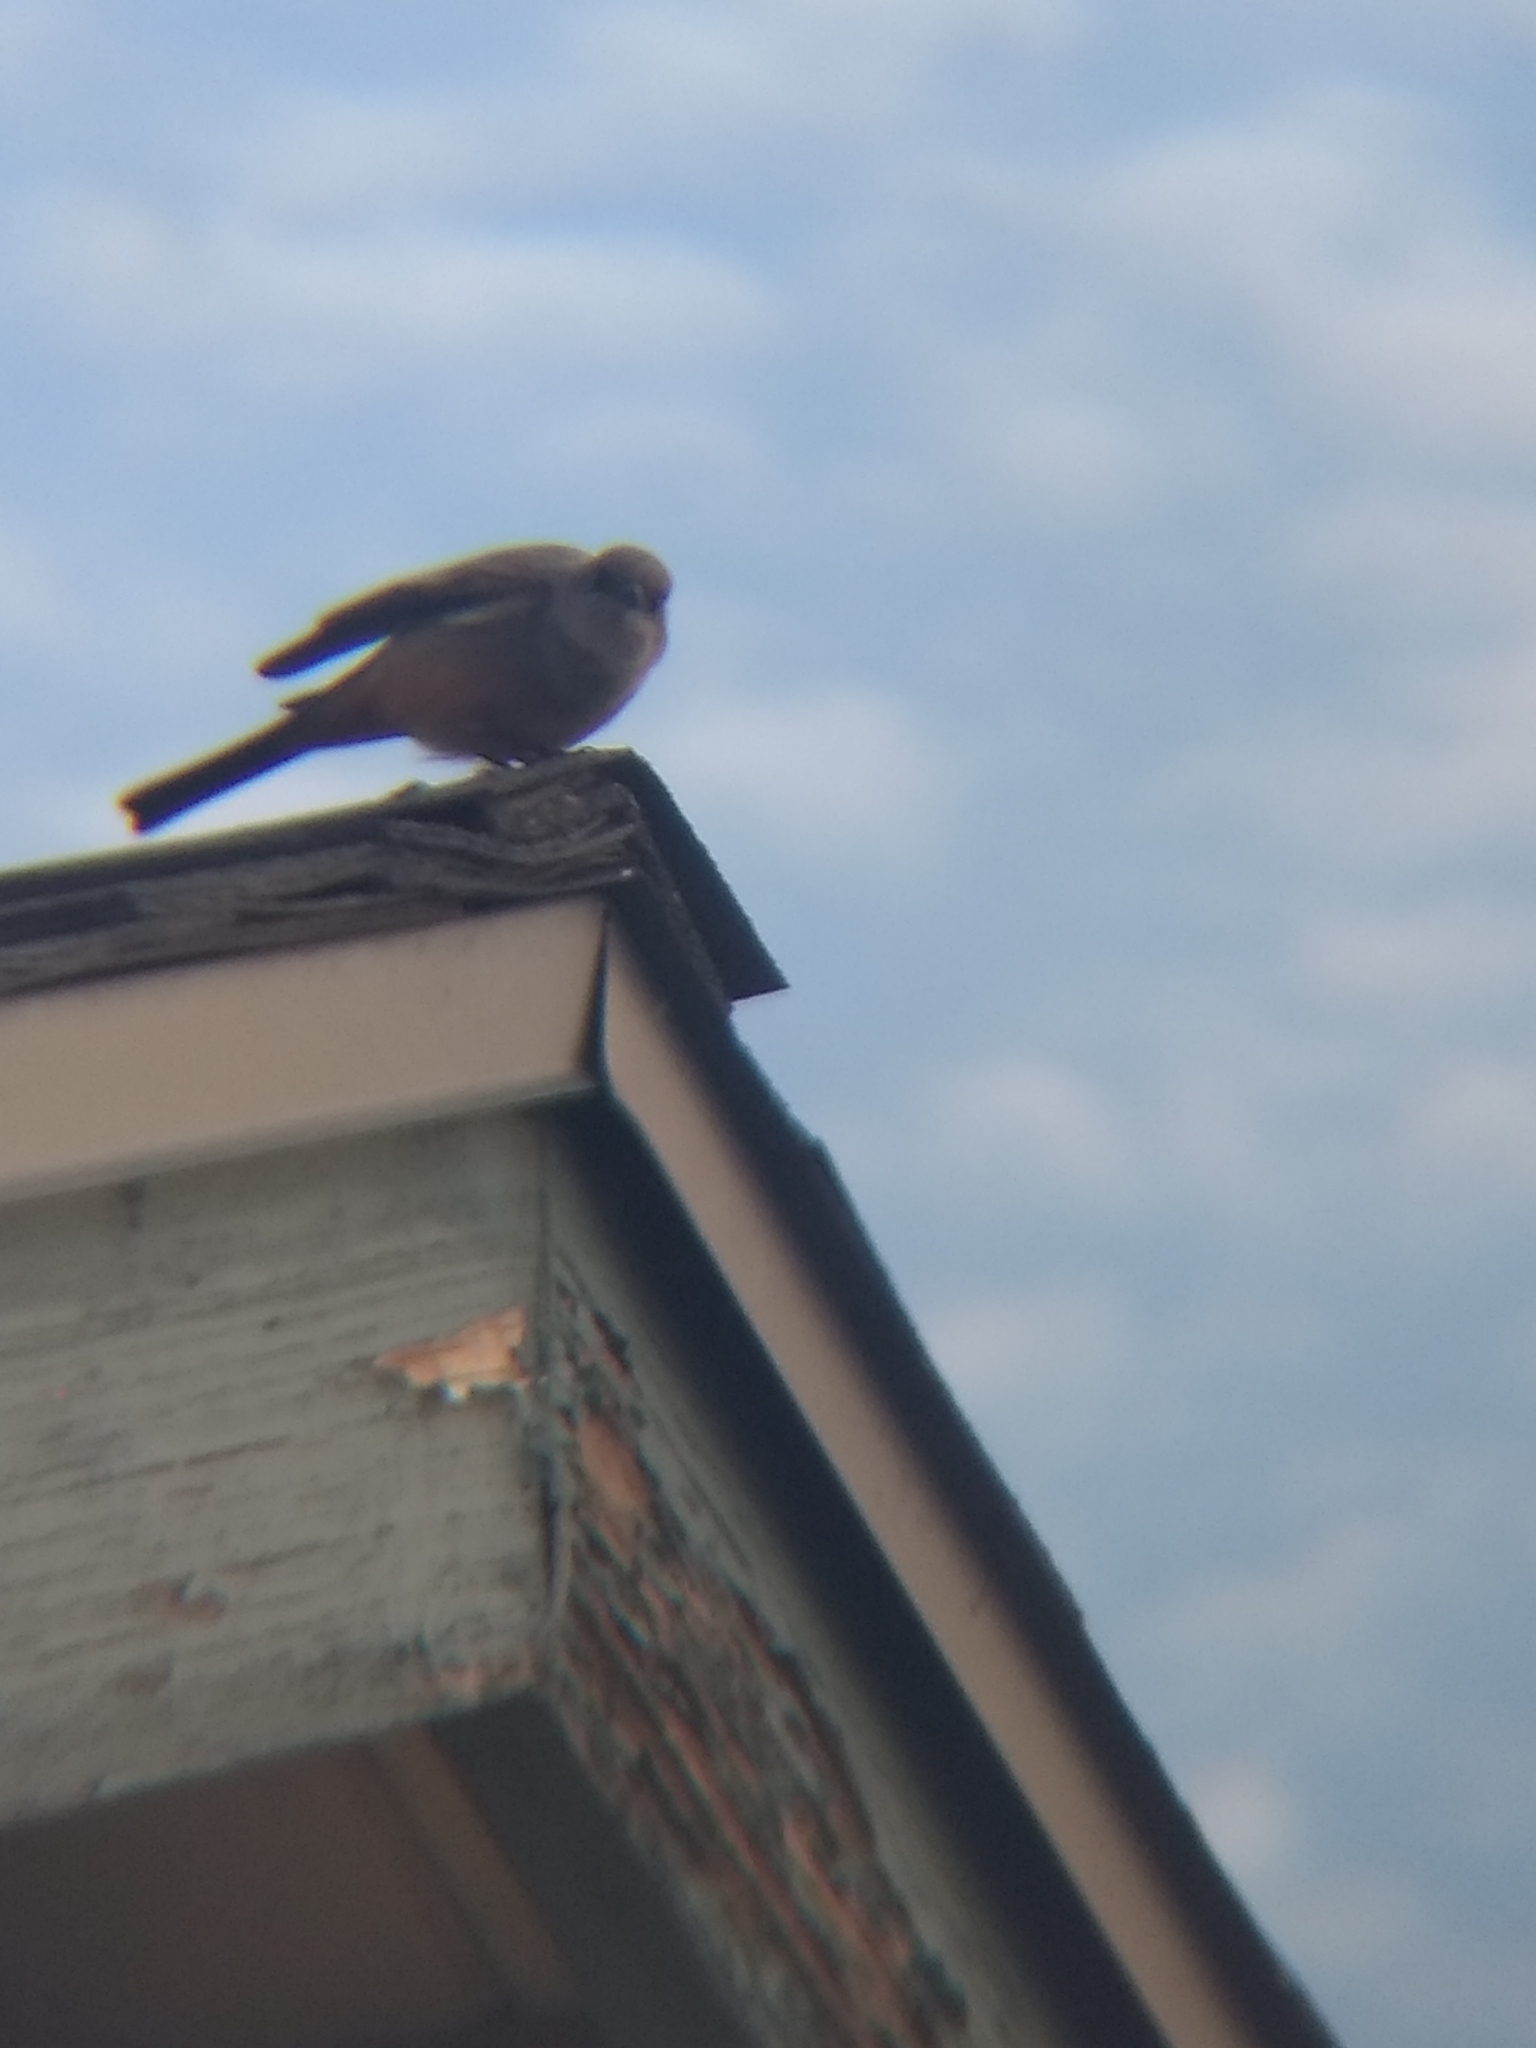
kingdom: Animalia
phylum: Chordata
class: Aves
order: Passeriformes
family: Tyrannidae
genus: Sayornis
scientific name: Sayornis saya
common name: Say's phoebe
